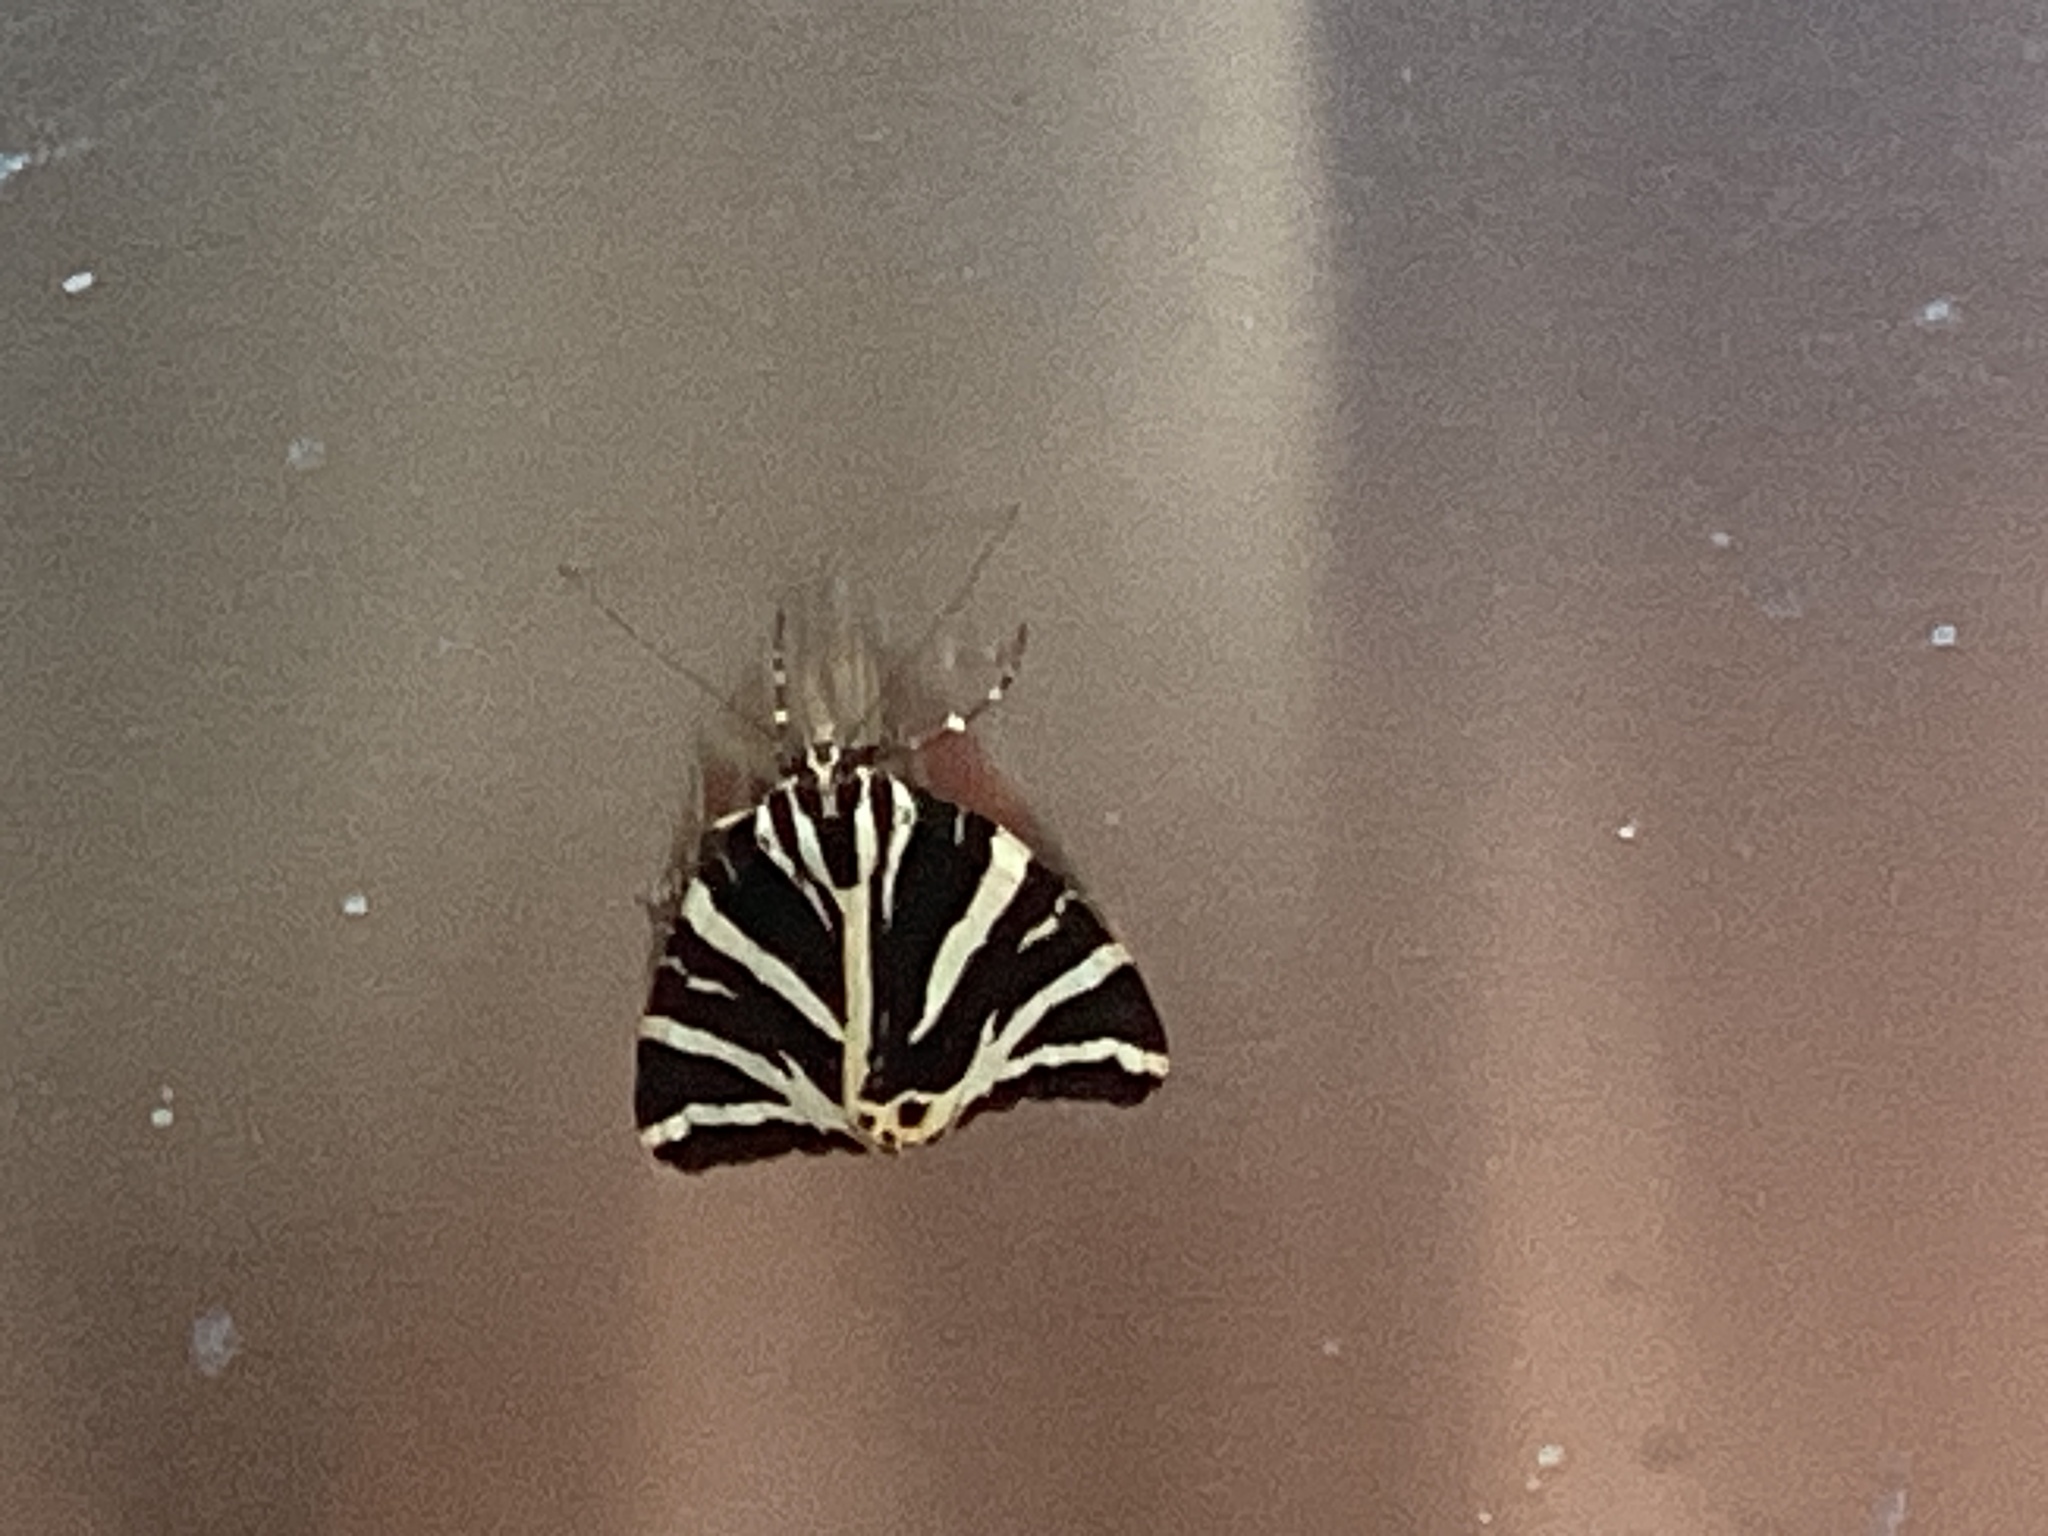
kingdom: Animalia
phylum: Arthropoda
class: Insecta
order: Lepidoptera
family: Erebidae
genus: Euplagia
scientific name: Euplagia quadripunctaria
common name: Jersey tiger
